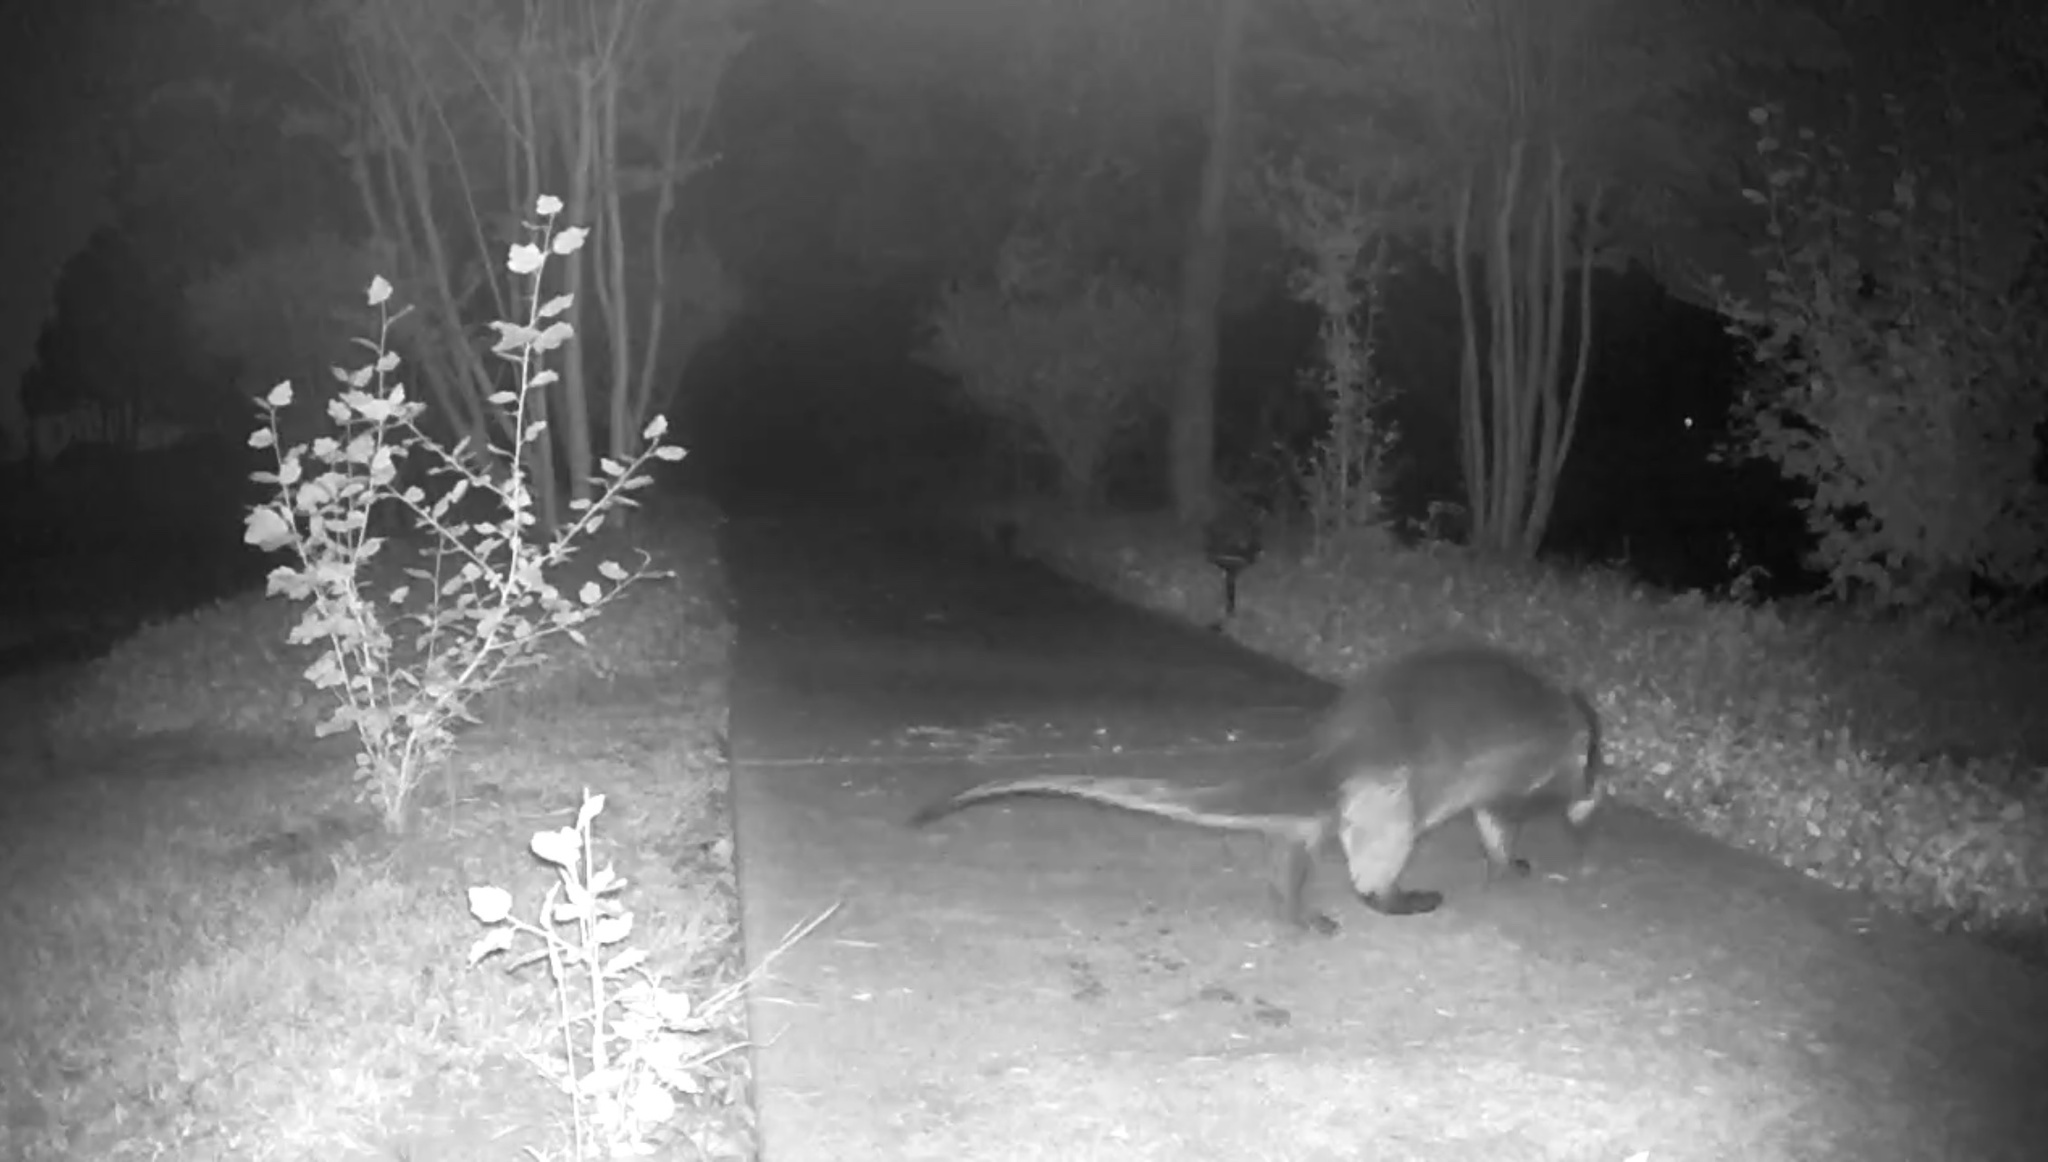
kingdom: Animalia
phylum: Chordata
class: Mammalia
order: Carnivora
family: Mustelidae
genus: Lontra
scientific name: Lontra canadensis
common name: North american river otter
